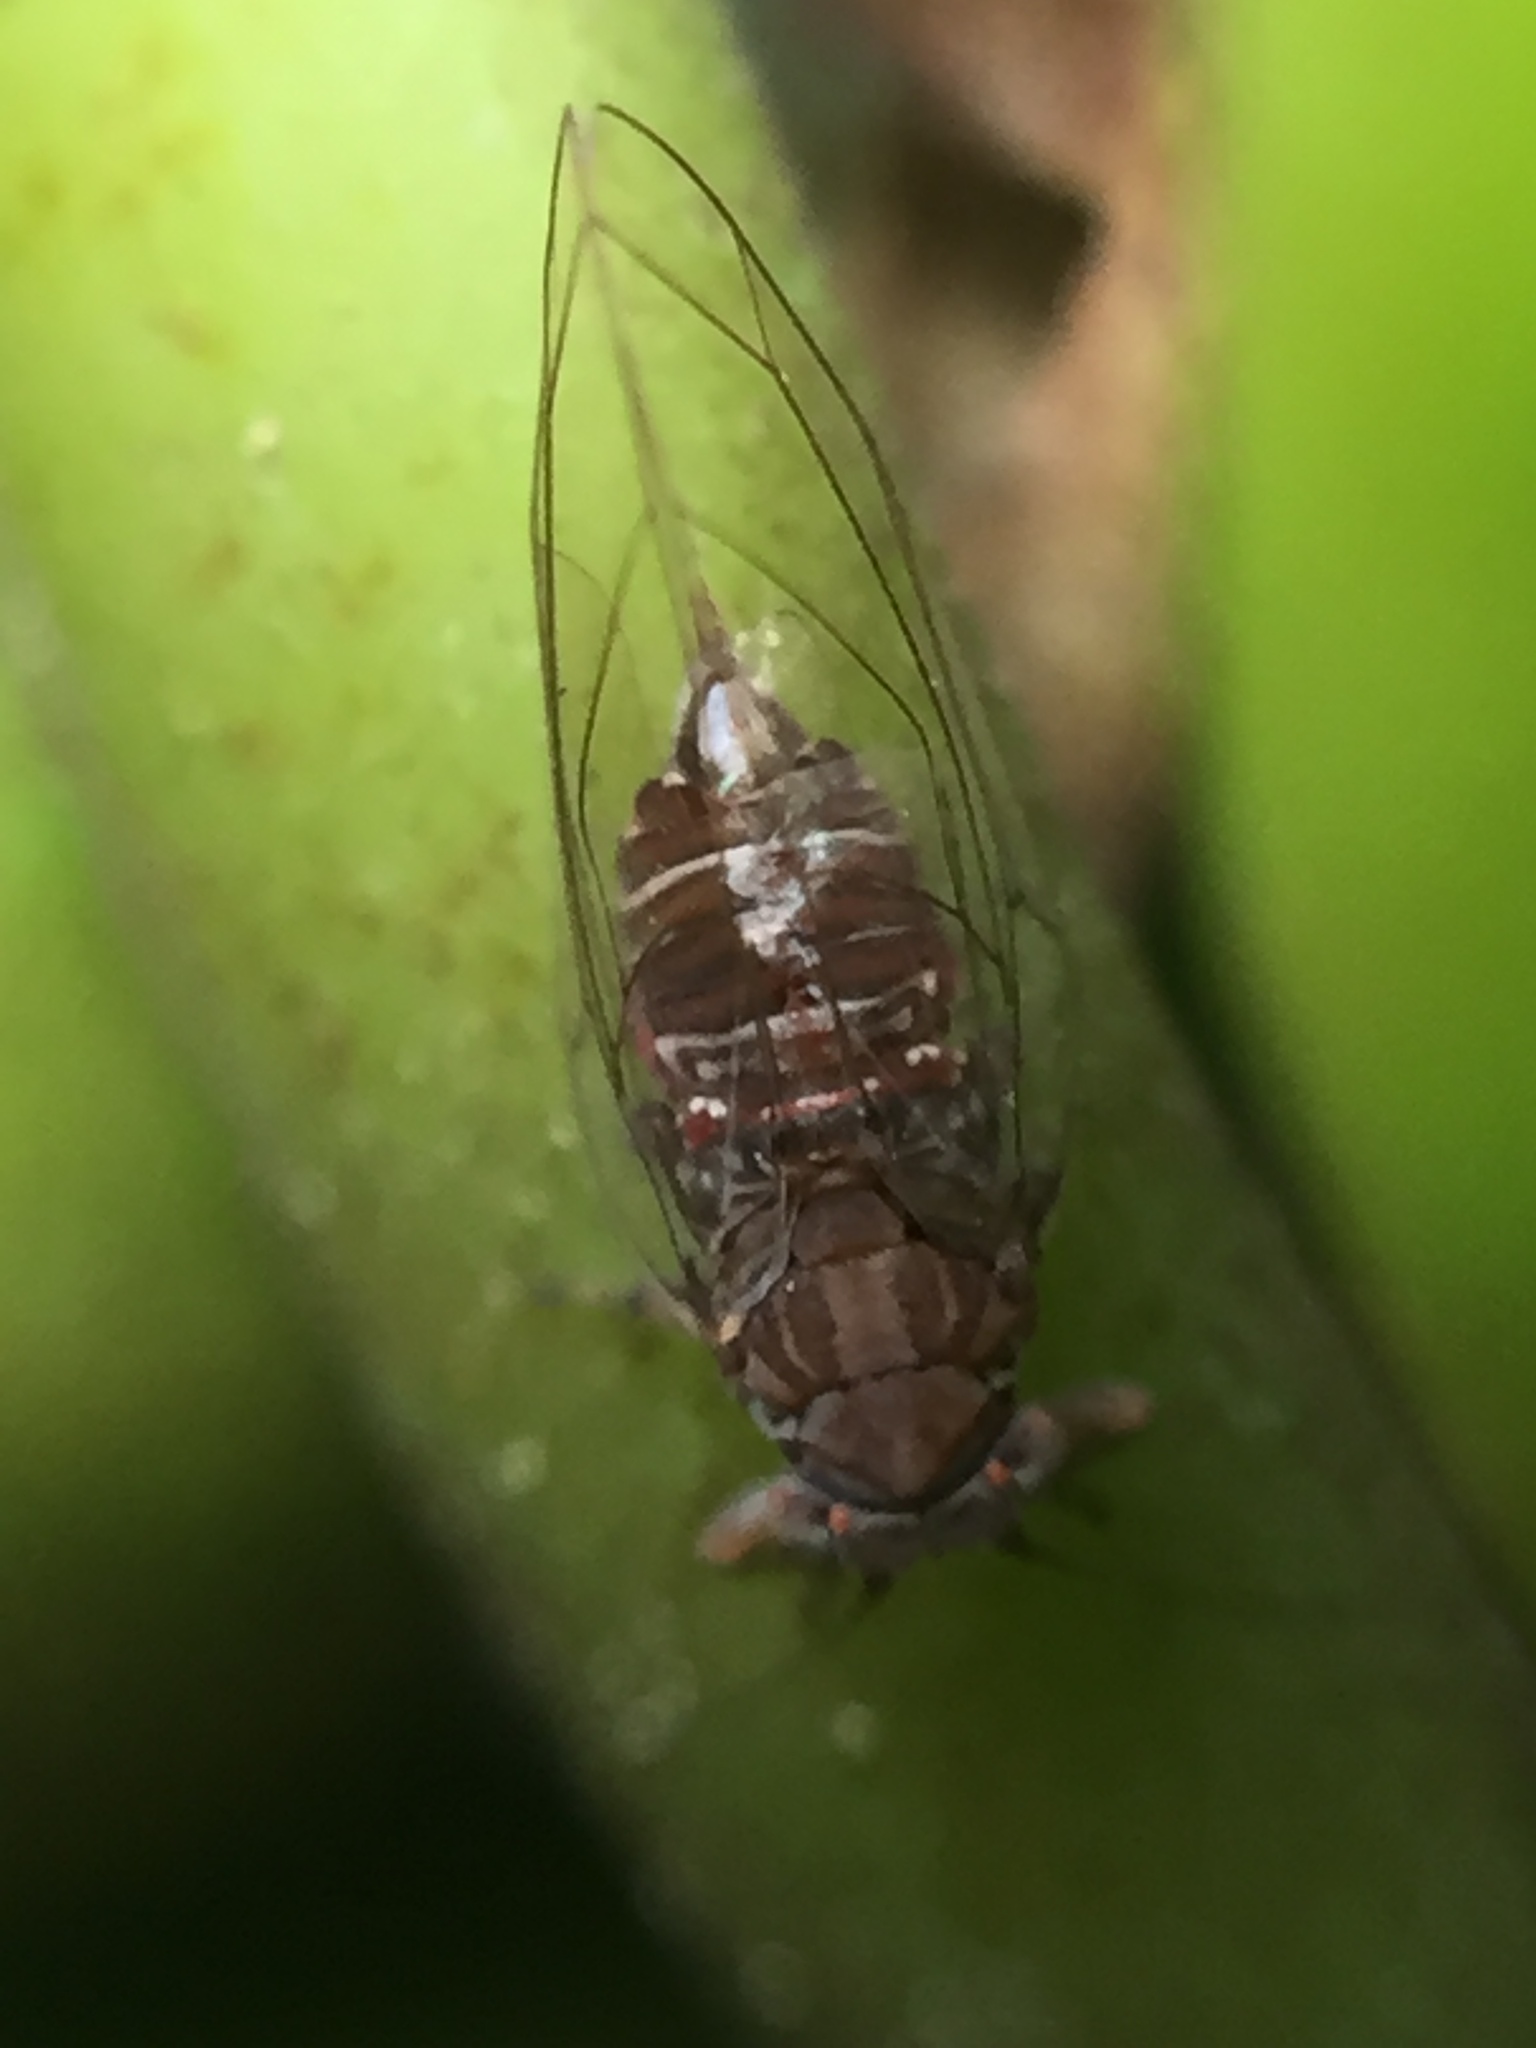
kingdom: Animalia
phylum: Arthropoda
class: Insecta
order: Hemiptera
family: Homotomidae
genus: Mycopsylla
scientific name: Mycopsylla obliqua
